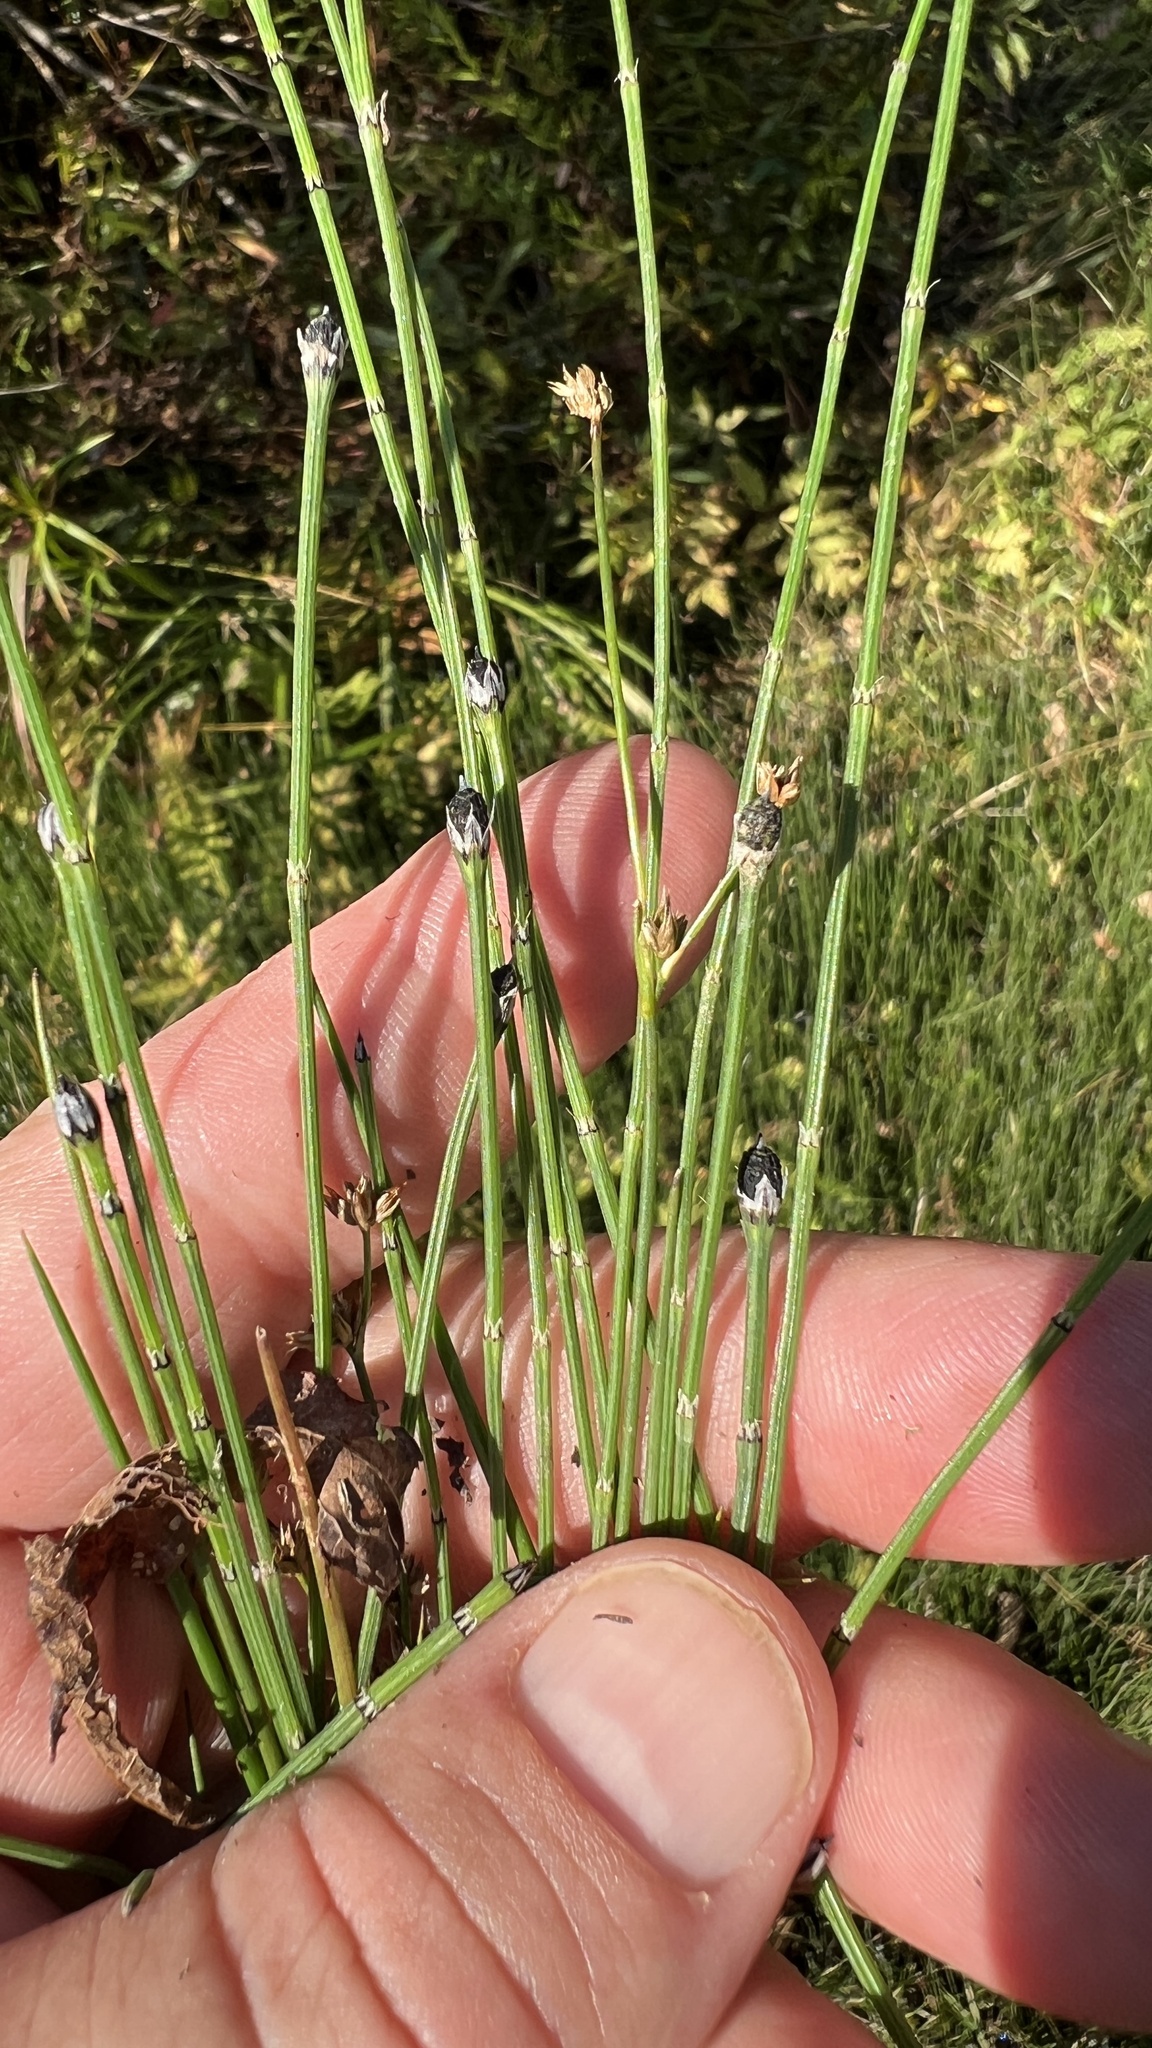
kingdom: Plantae
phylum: Tracheophyta
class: Polypodiopsida
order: Equisetales
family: Equisetaceae
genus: Equisetum
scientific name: Equisetum variegatum
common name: Variegated horsetail
